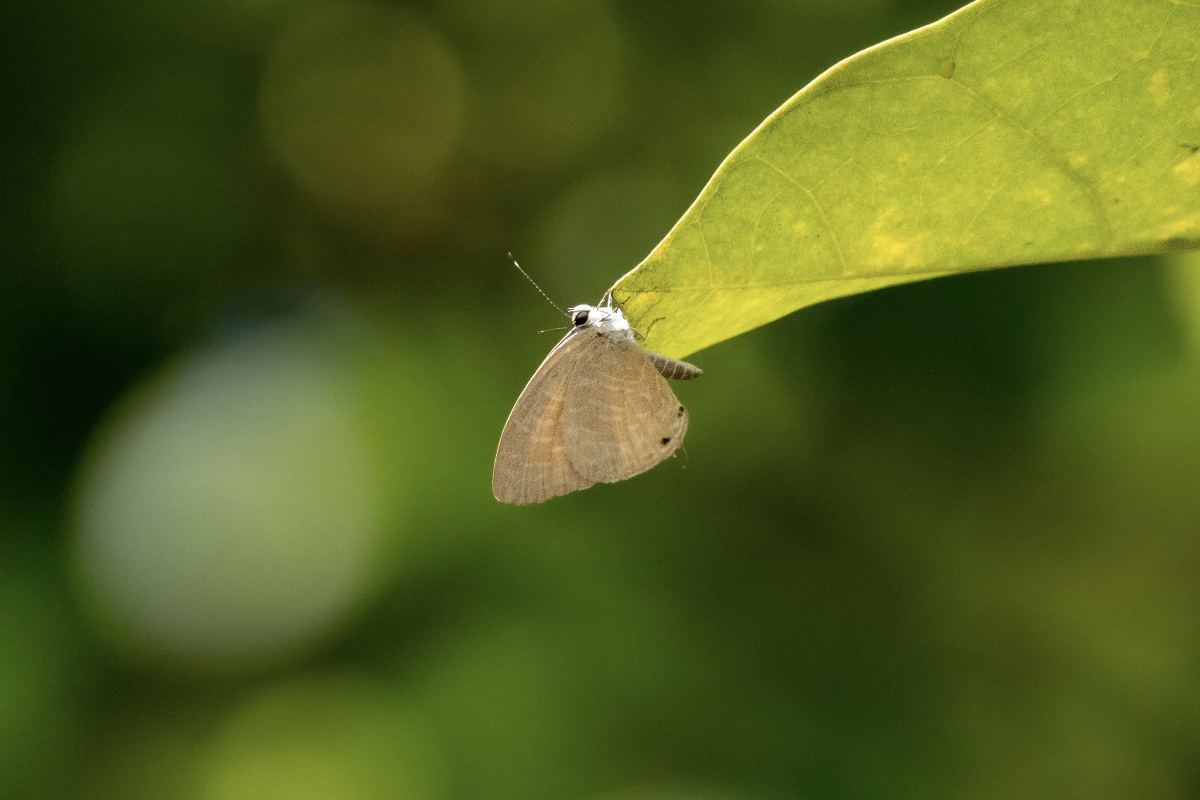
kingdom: Animalia
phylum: Arthropoda
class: Insecta
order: Lepidoptera
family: Lycaenidae
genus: Jamides
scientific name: Jamides bochus
